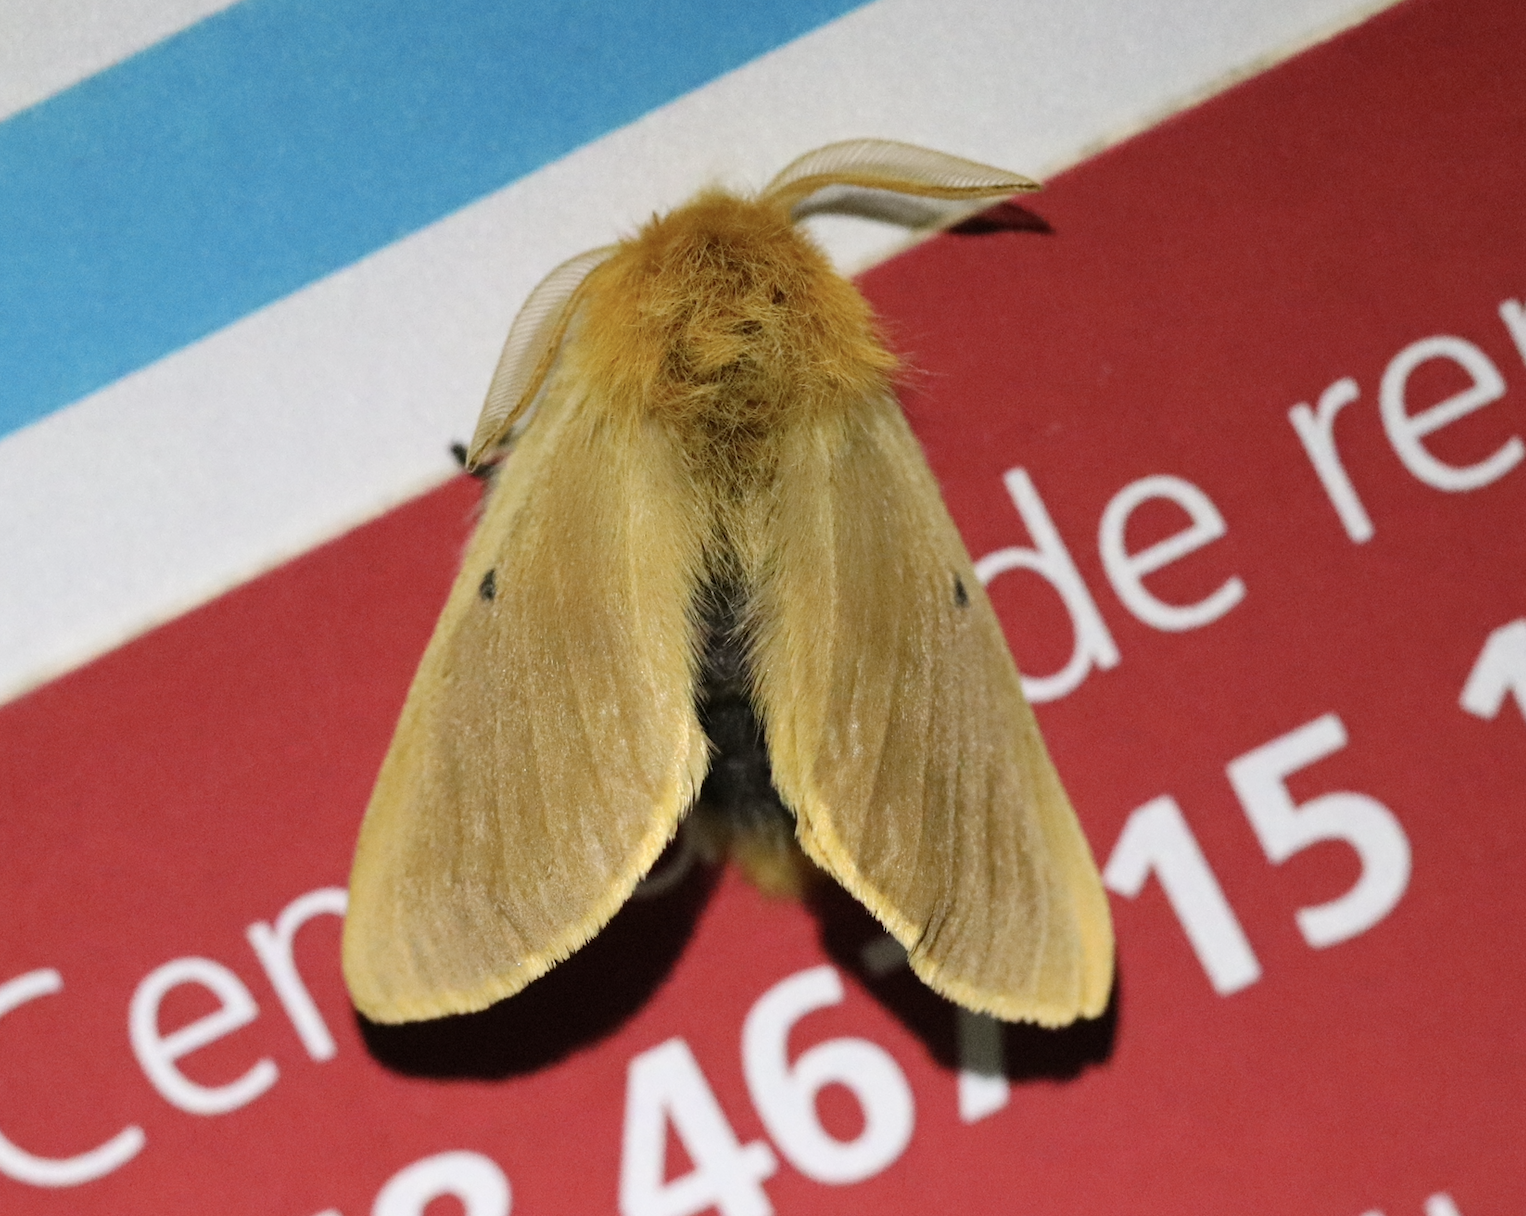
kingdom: Animalia
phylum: Arthropoda
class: Insecta
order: Lepidoptera
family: Brahmaeidae
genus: Lemonia
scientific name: Lemonia taraxaci
